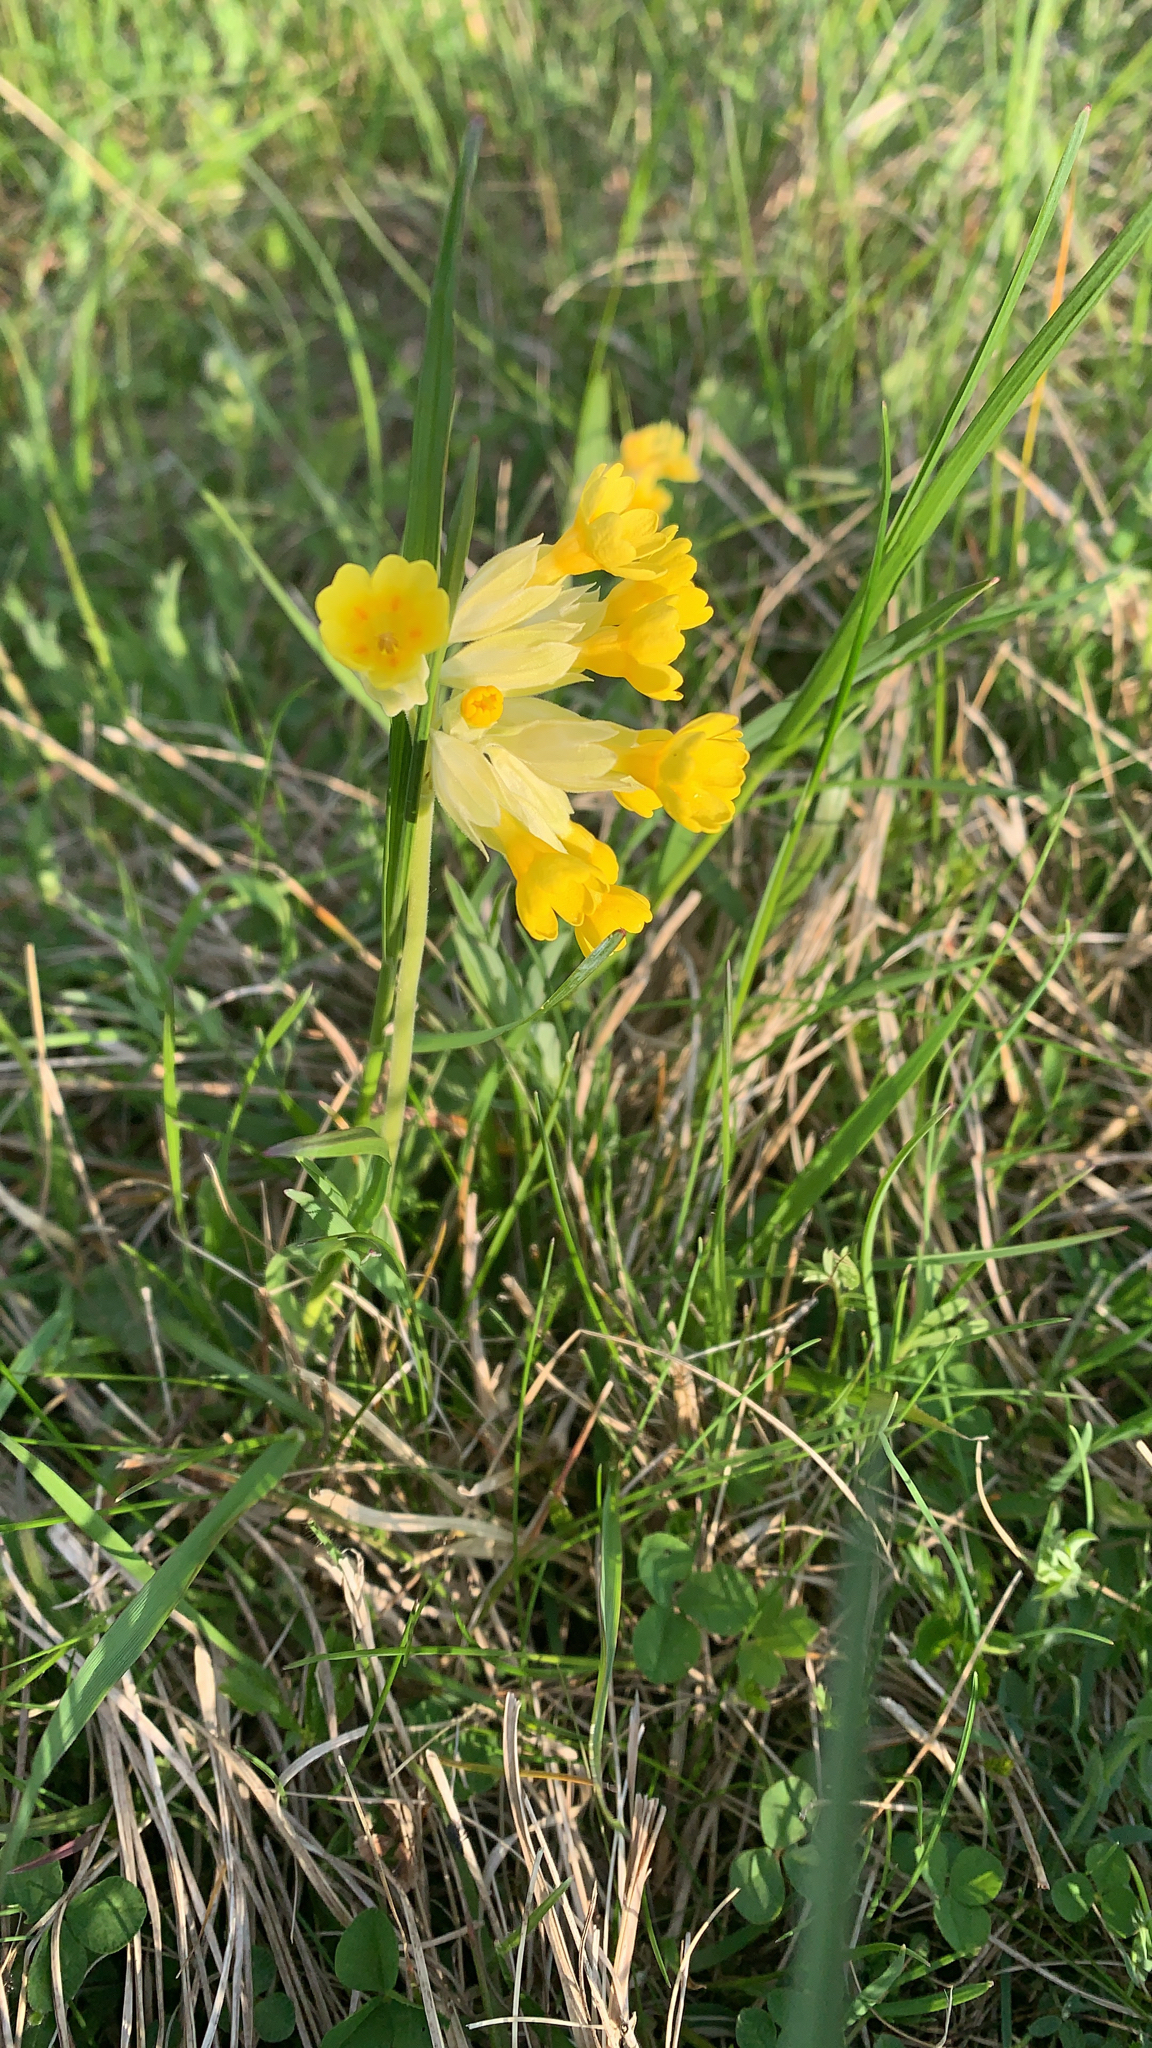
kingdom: Plantae
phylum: Tracheophyta
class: Magnoliopsida
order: Ericales
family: Primulaceae
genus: Primula
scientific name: Primula veris
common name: Cowslip
